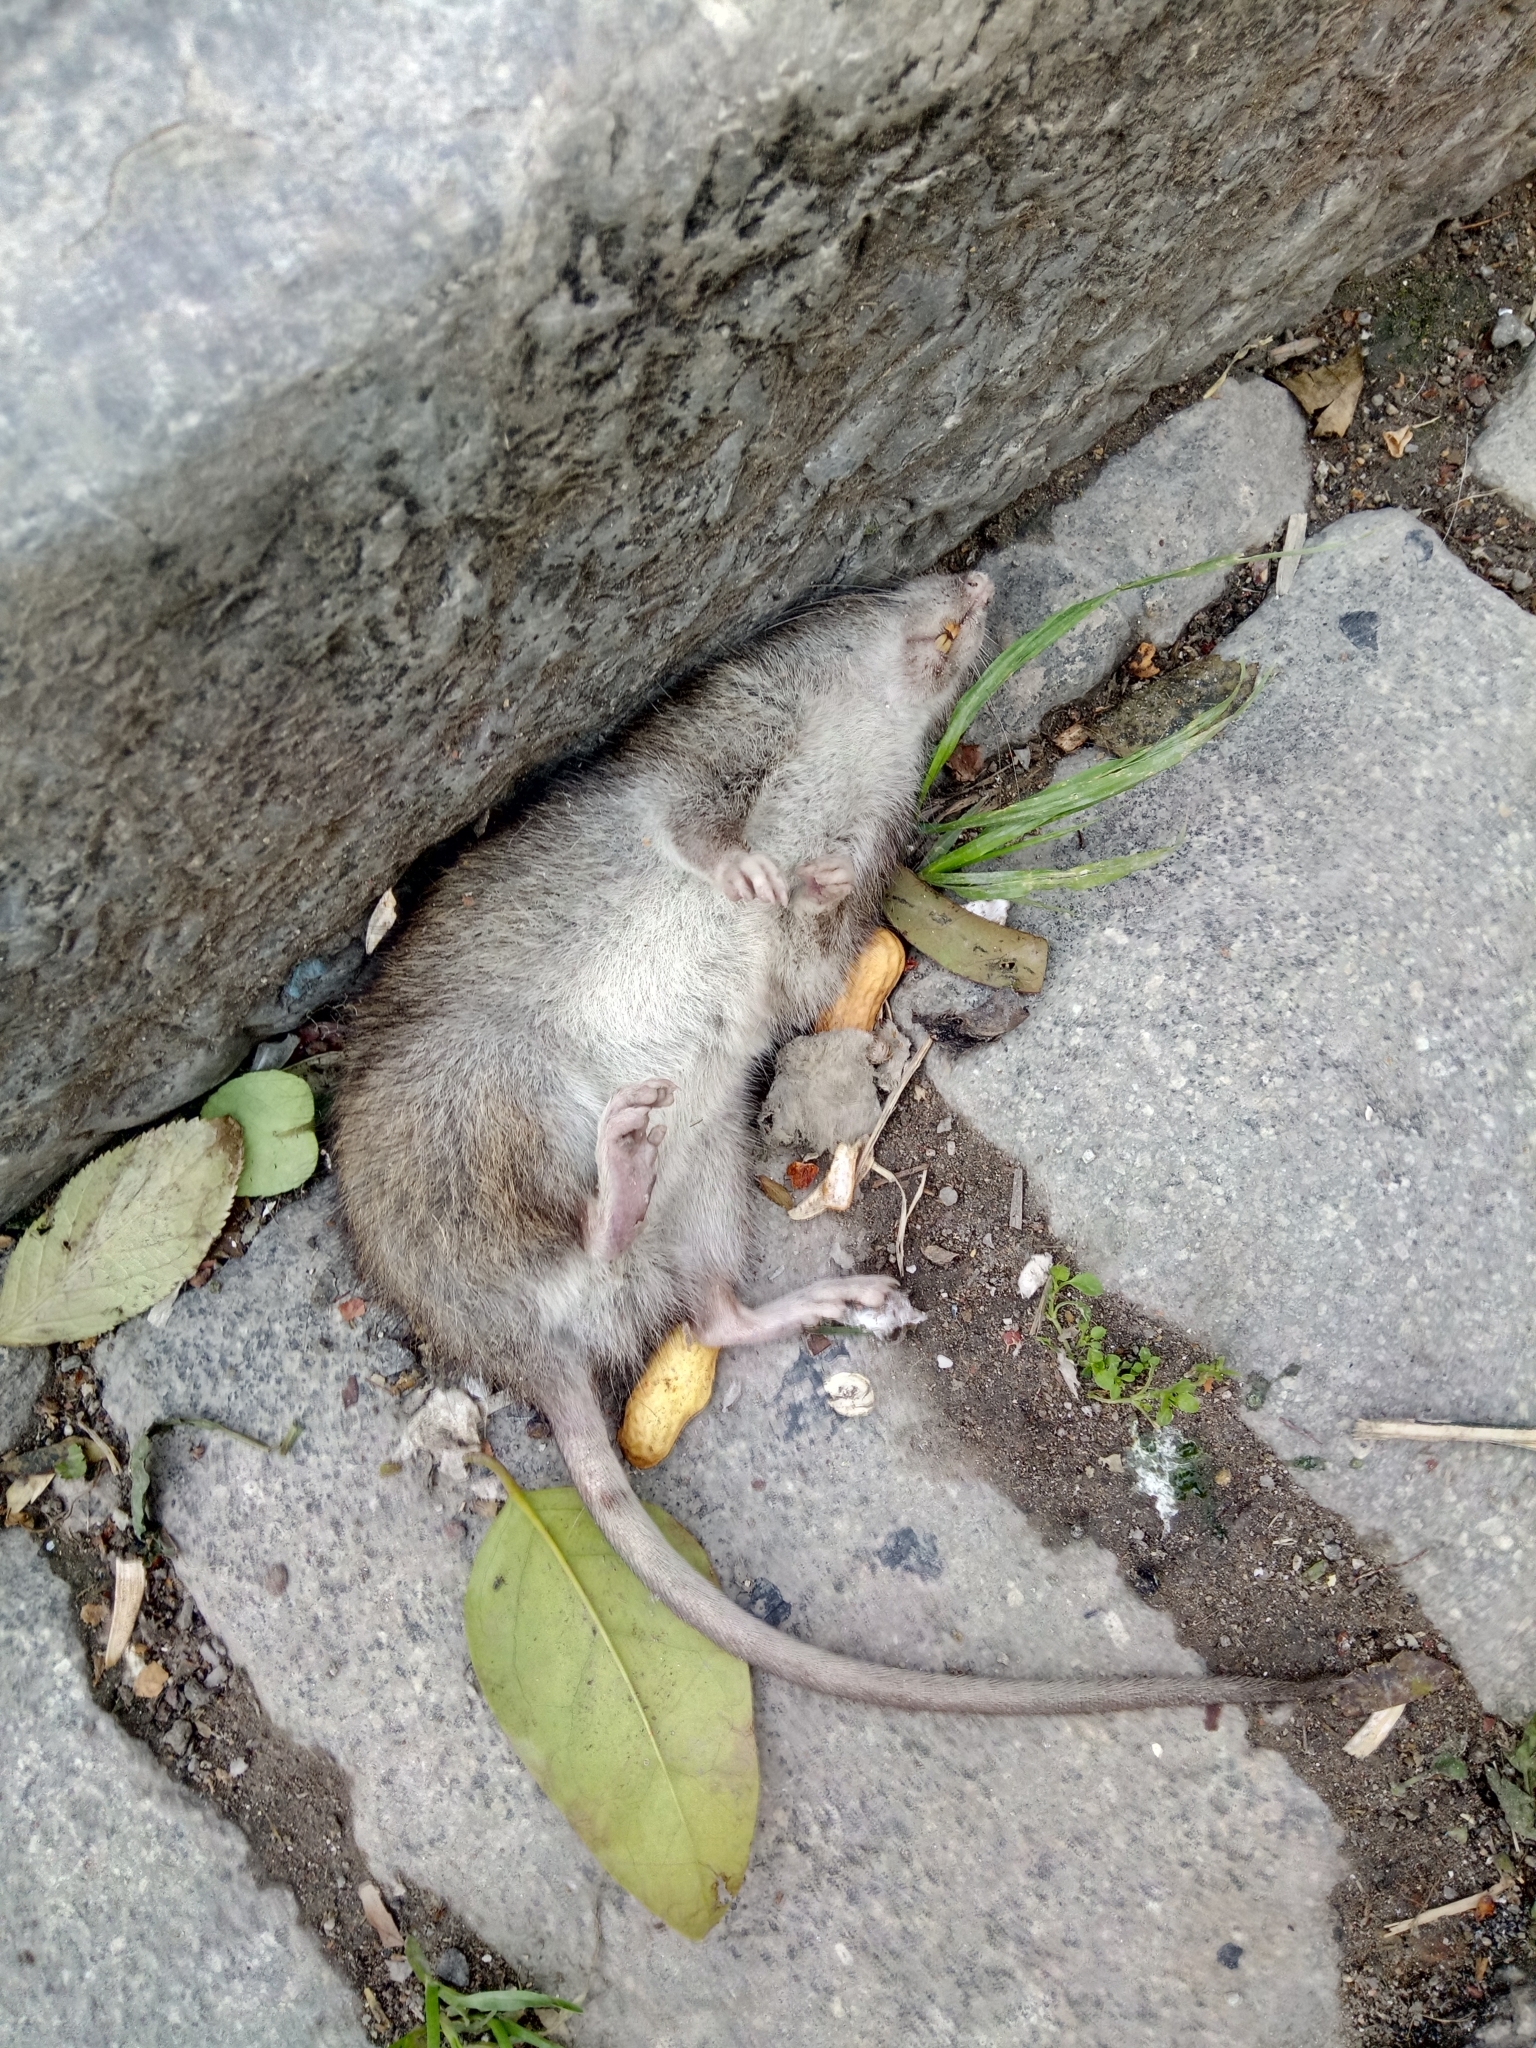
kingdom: Animalia
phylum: Chordata
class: Mammalia
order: Rodentia
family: Muridae
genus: Rattus
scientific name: Rattus norvegicus
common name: Brown rat
